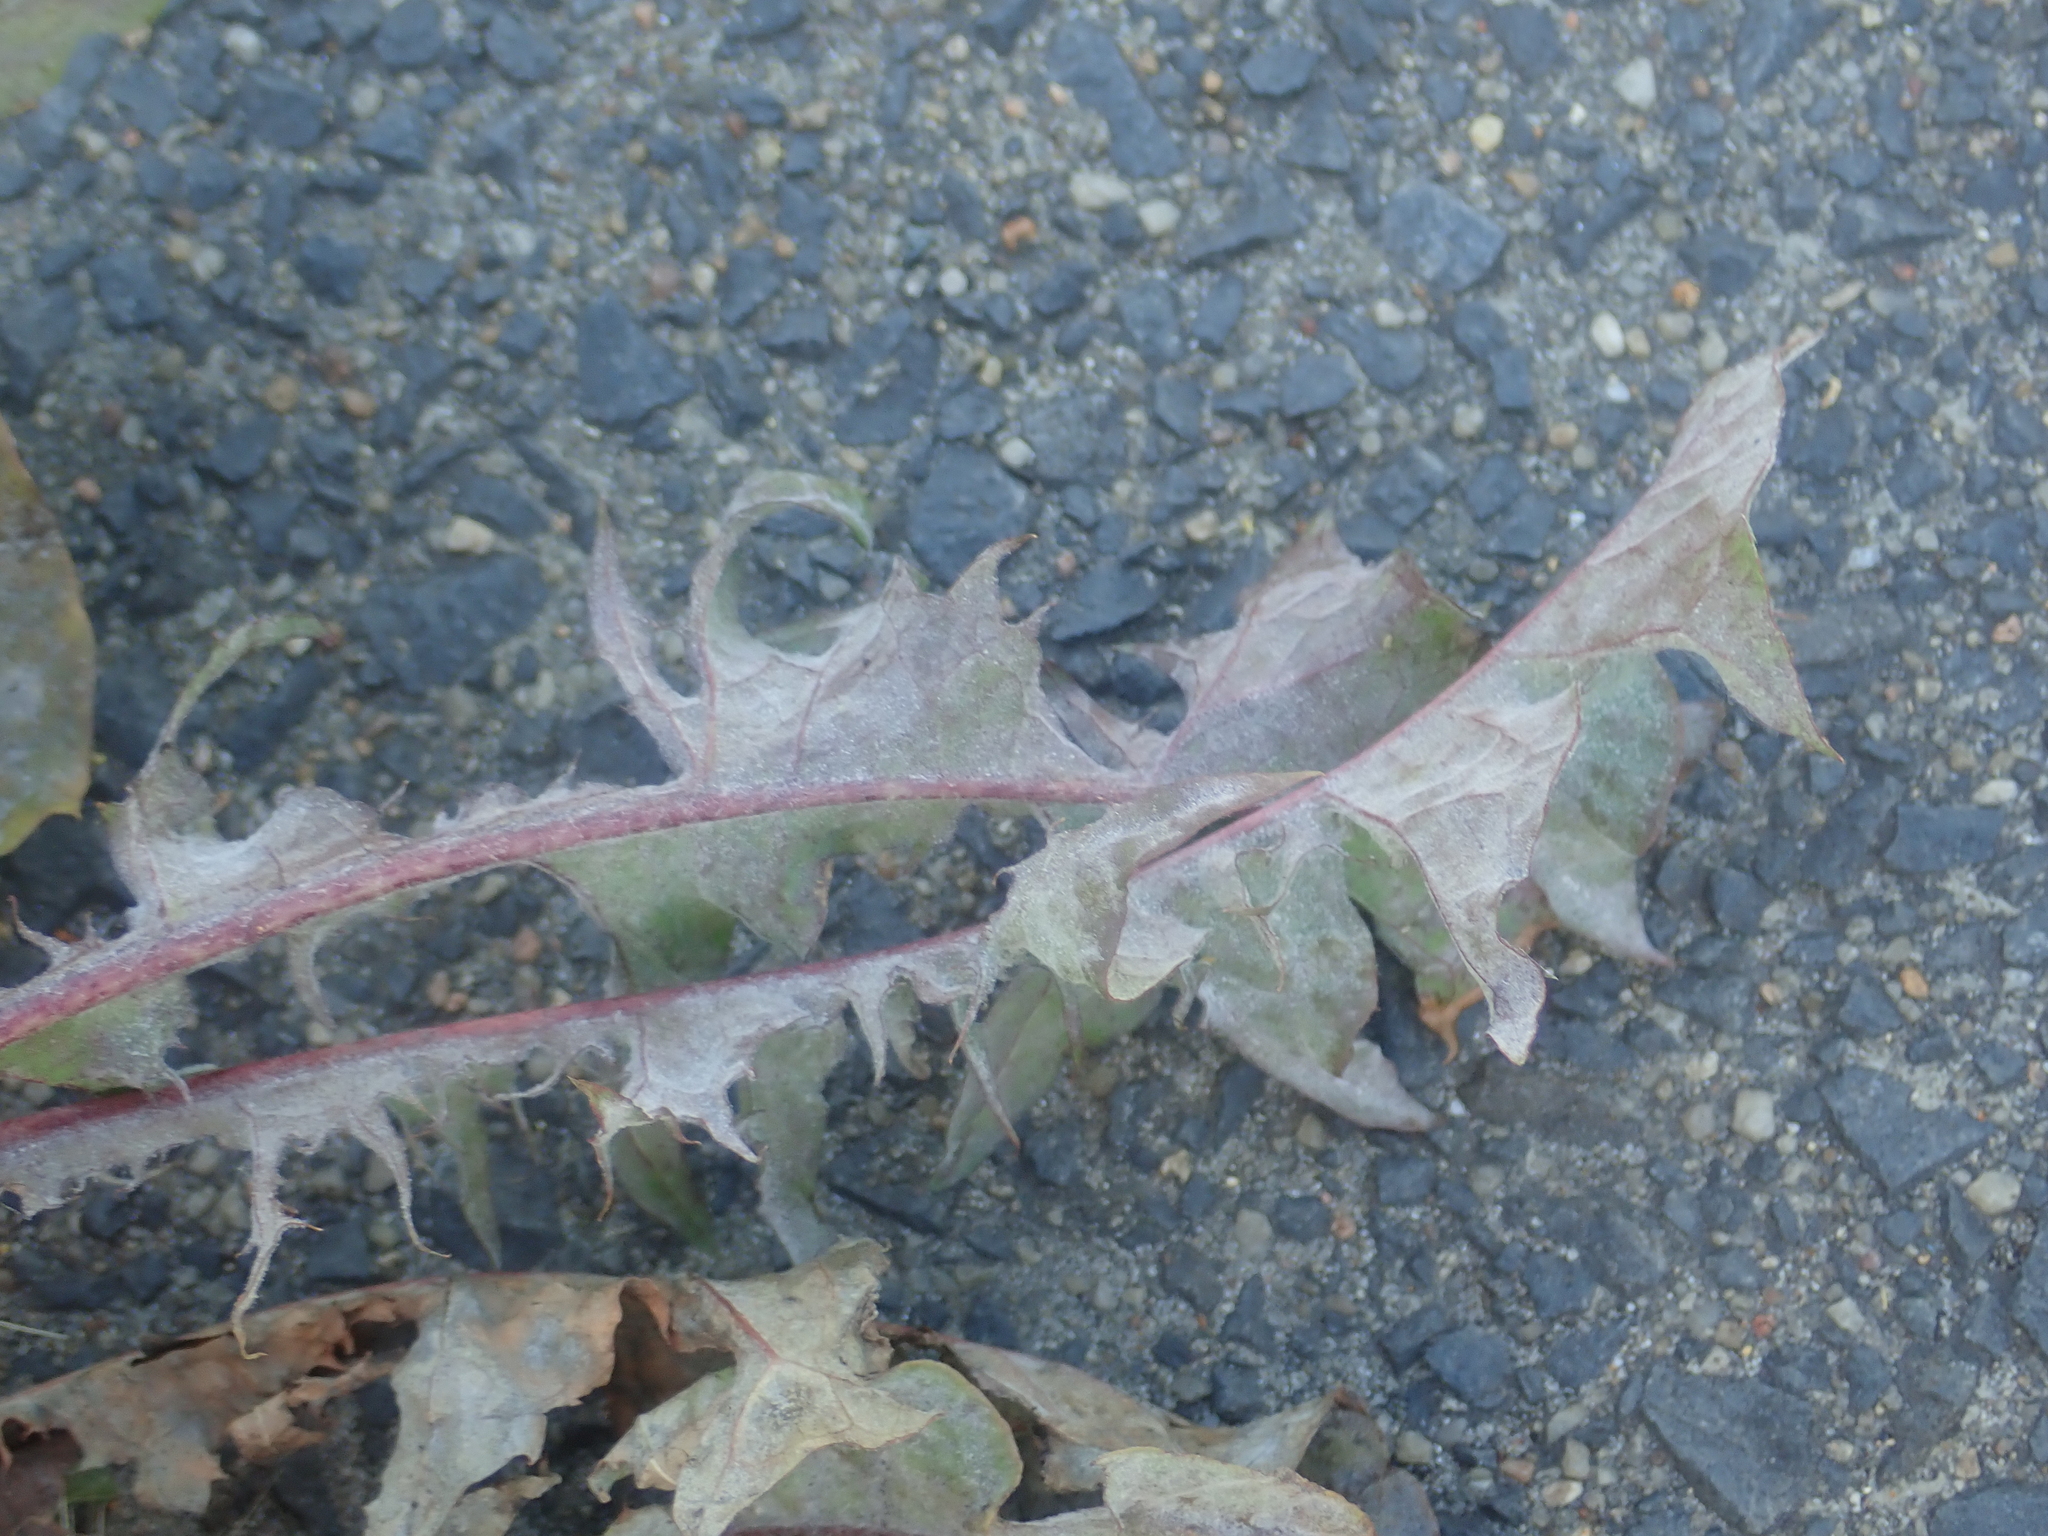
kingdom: Fungi
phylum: Ascomycota
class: Leotiomycetes
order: Helotiales
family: Erysiphaceae
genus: Podosphaera
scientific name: Podosphaera erigerontis-canadensis
